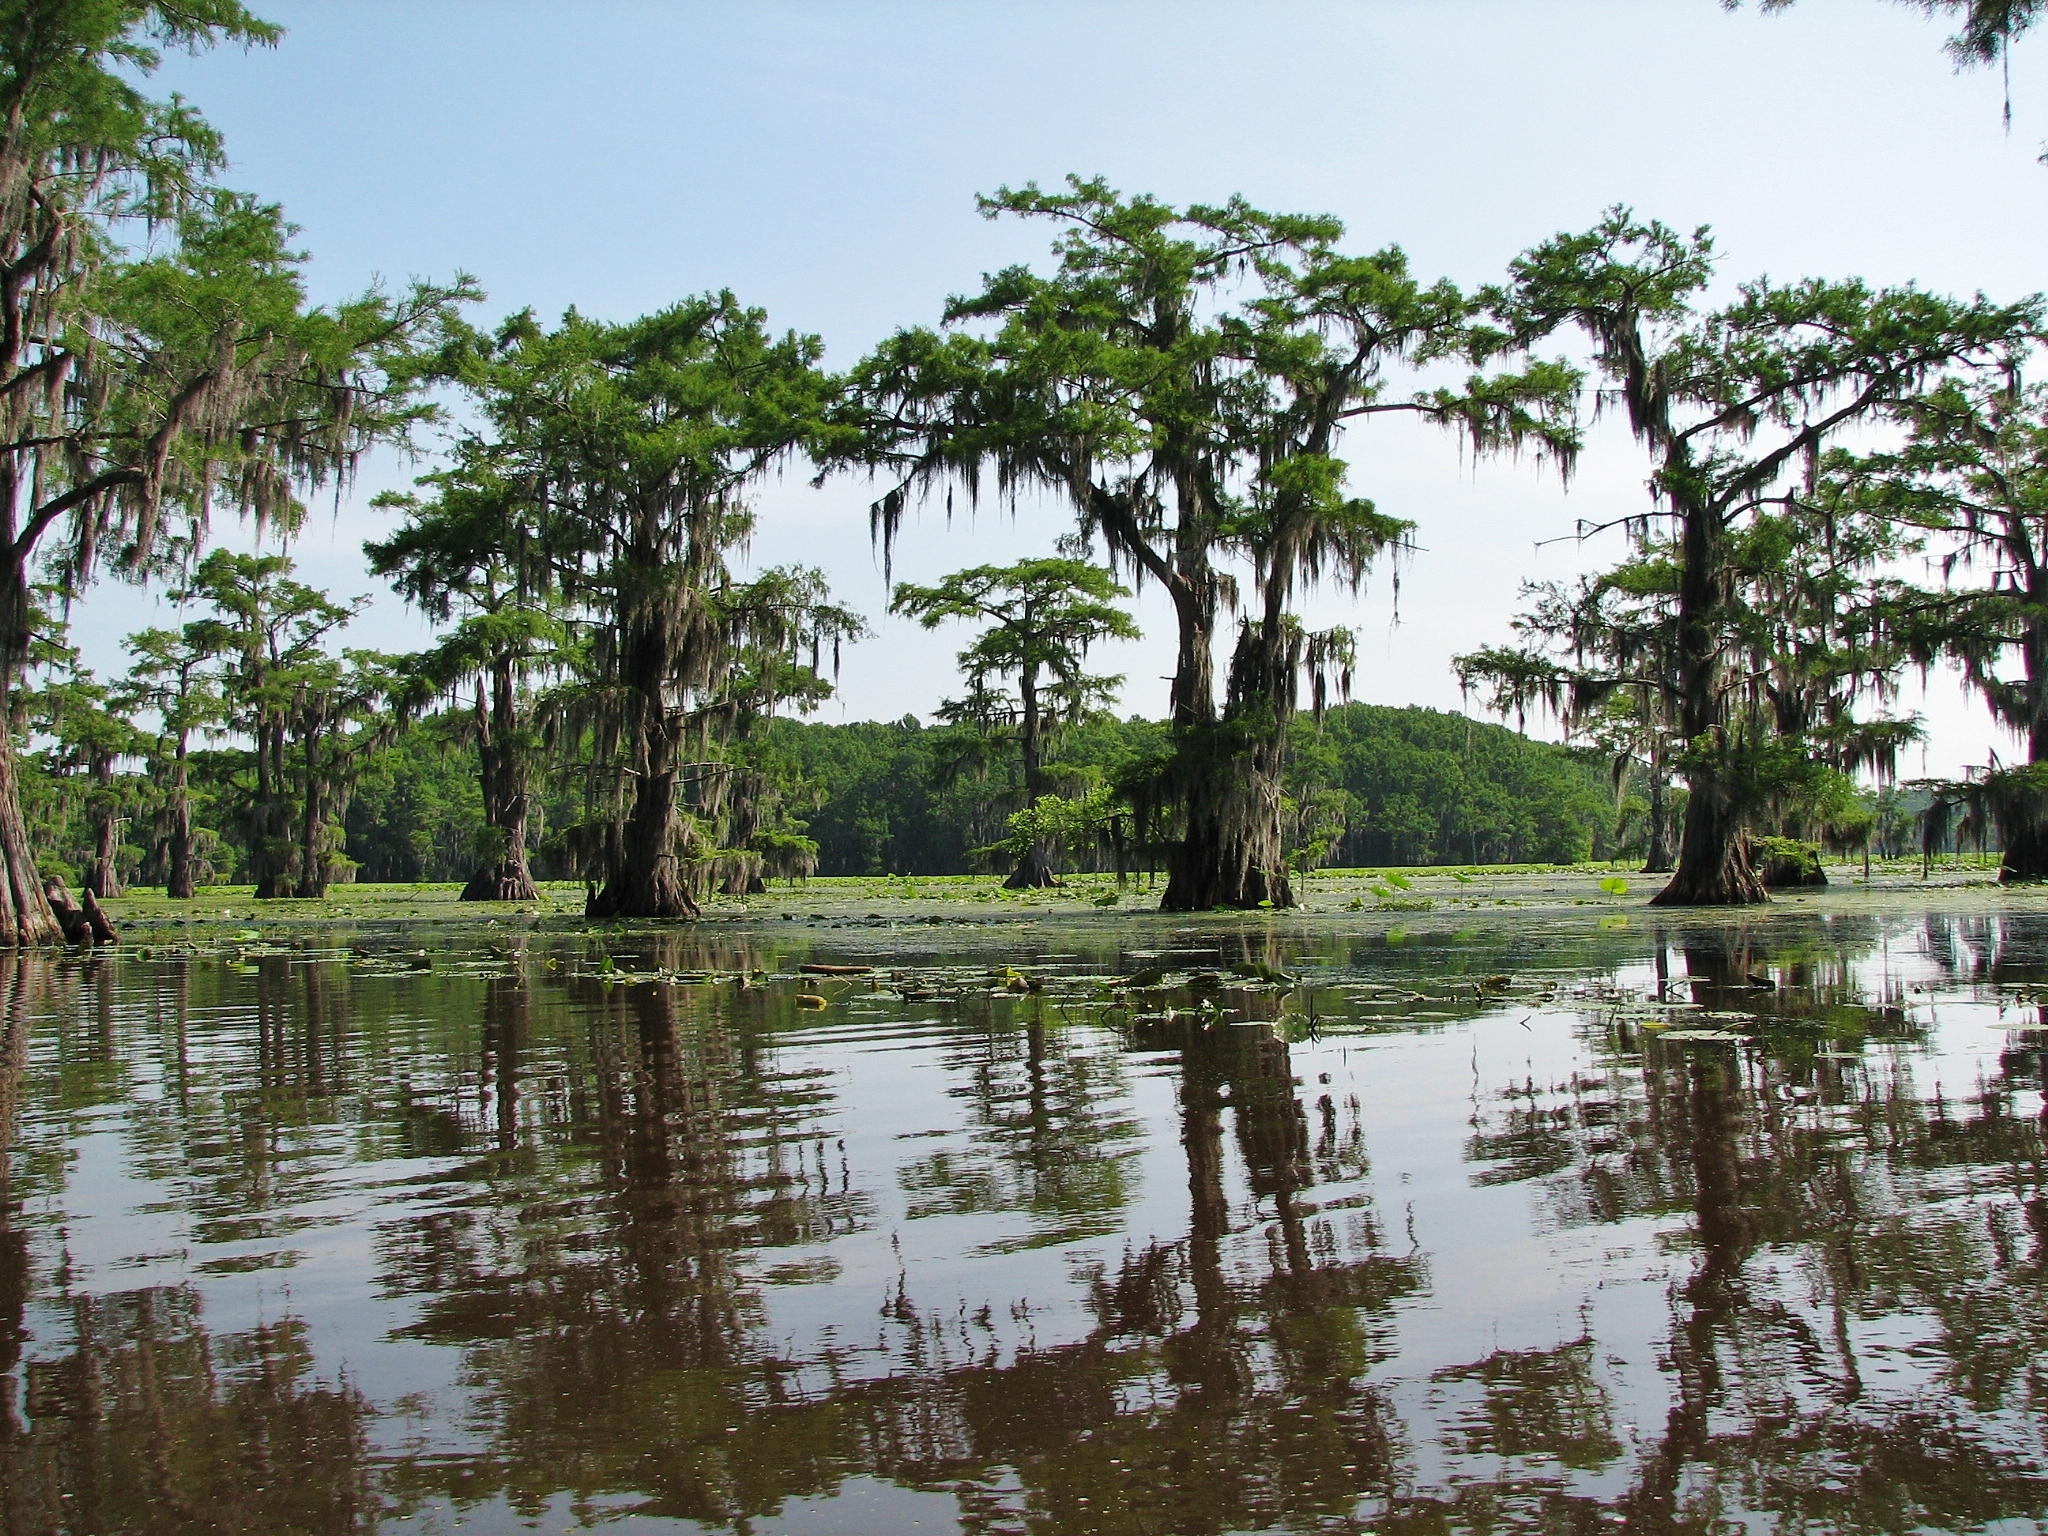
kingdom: Plantae
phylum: Tracheophyta
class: Pinopsida
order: Pinales
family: Cupressaceae
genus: Taxodium
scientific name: Taxodium distichum
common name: Bald cypress
